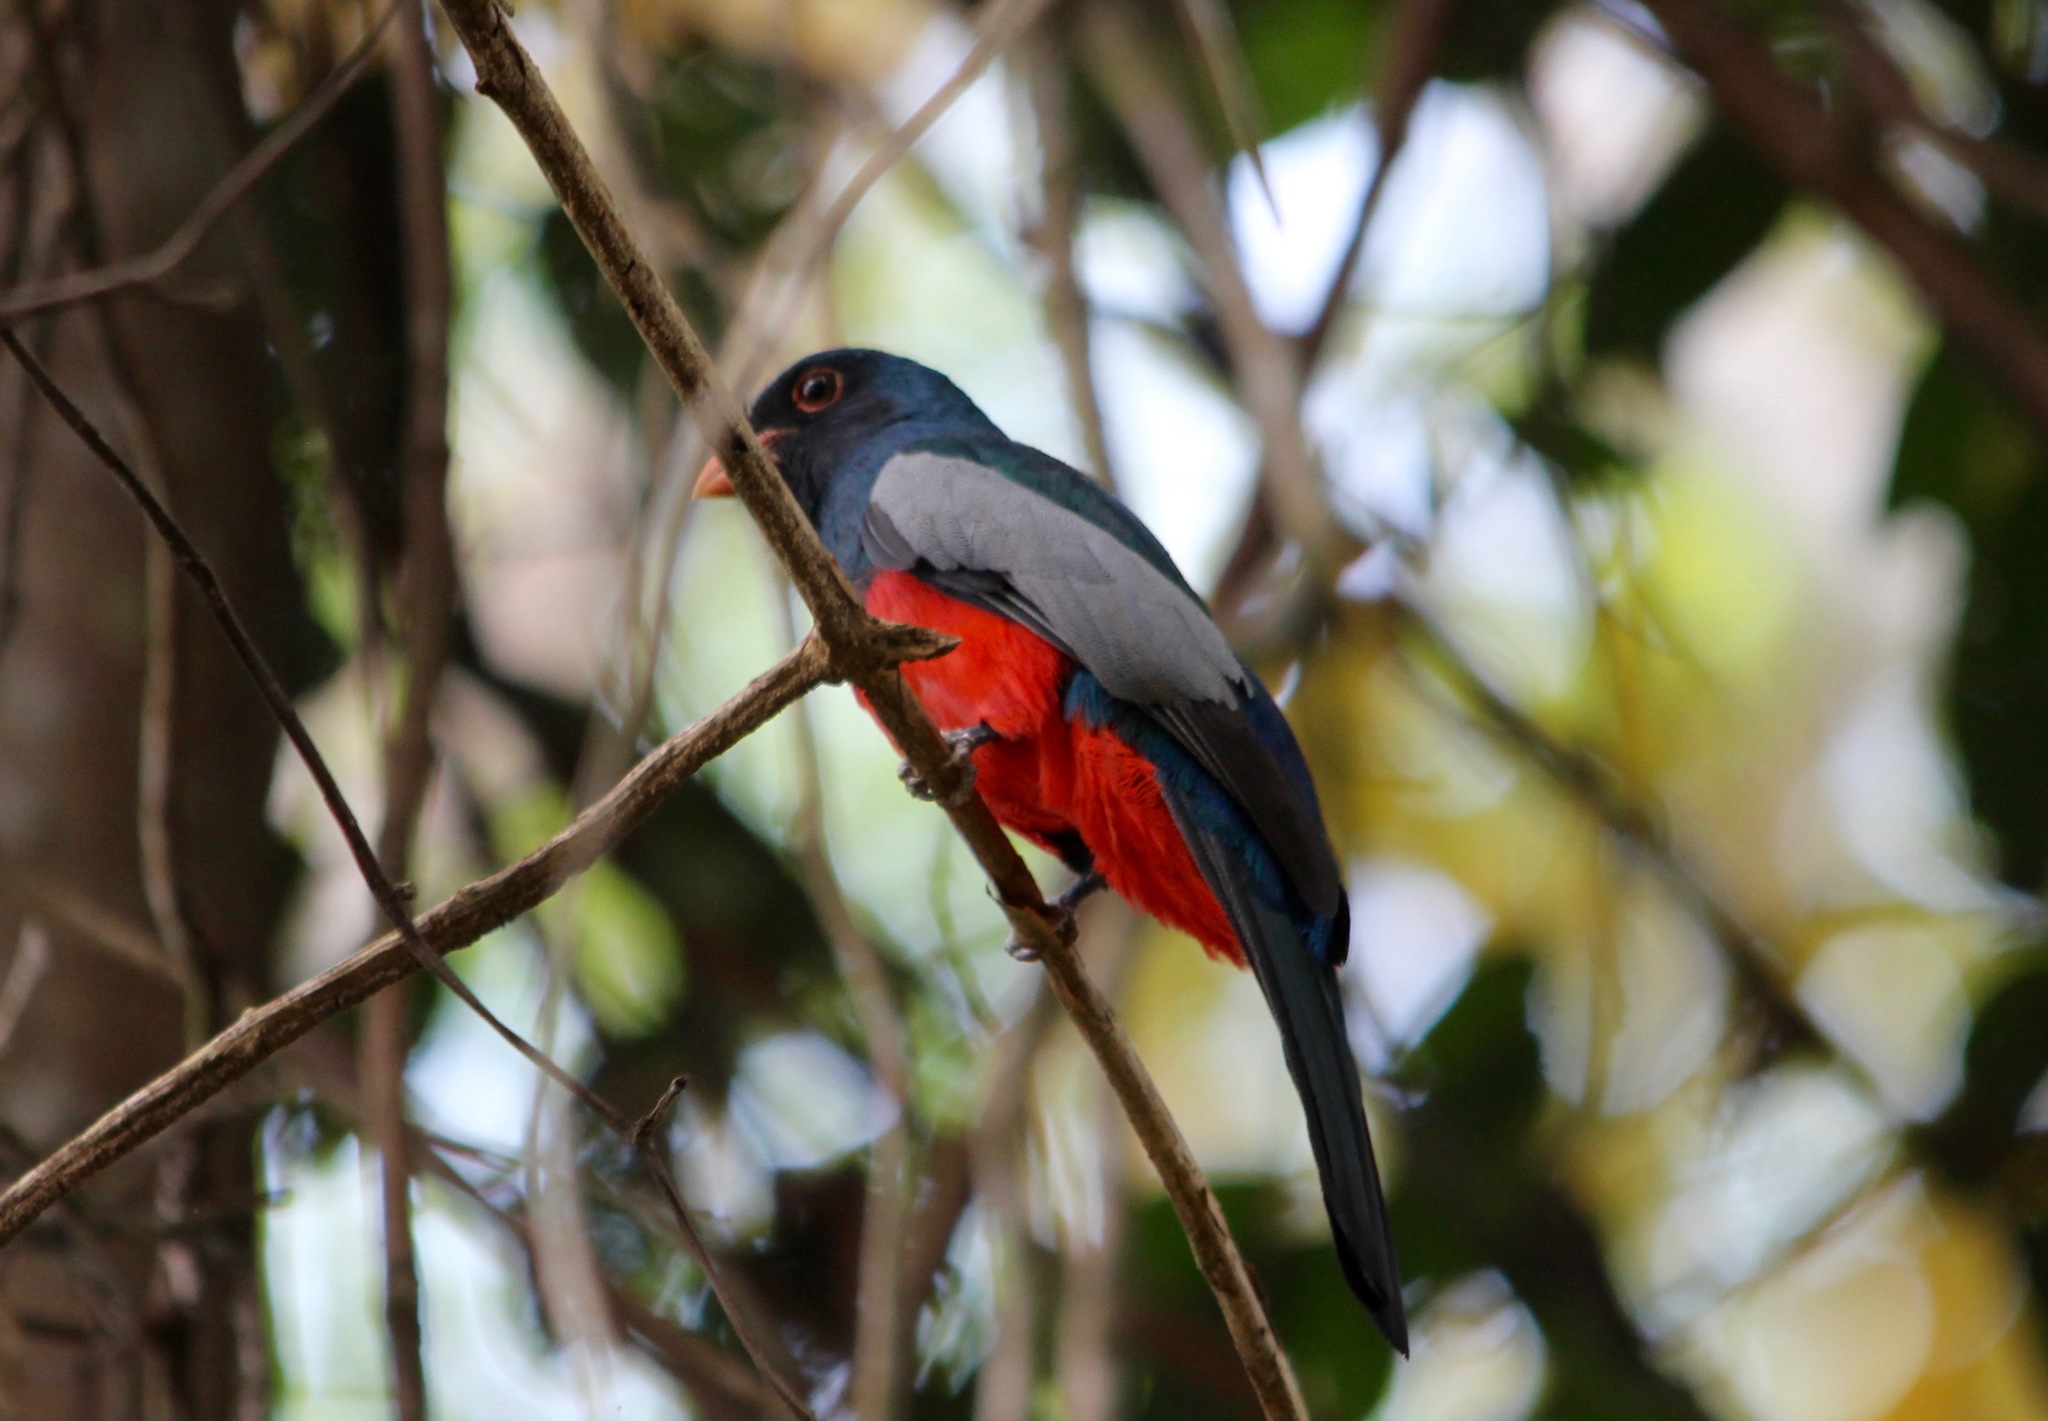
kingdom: Animalia
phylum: Chordata
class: Aves
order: Trogoniformes
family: Trogonidae
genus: Trogon
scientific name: Trogon massena
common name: Slaty-tailed trogon
